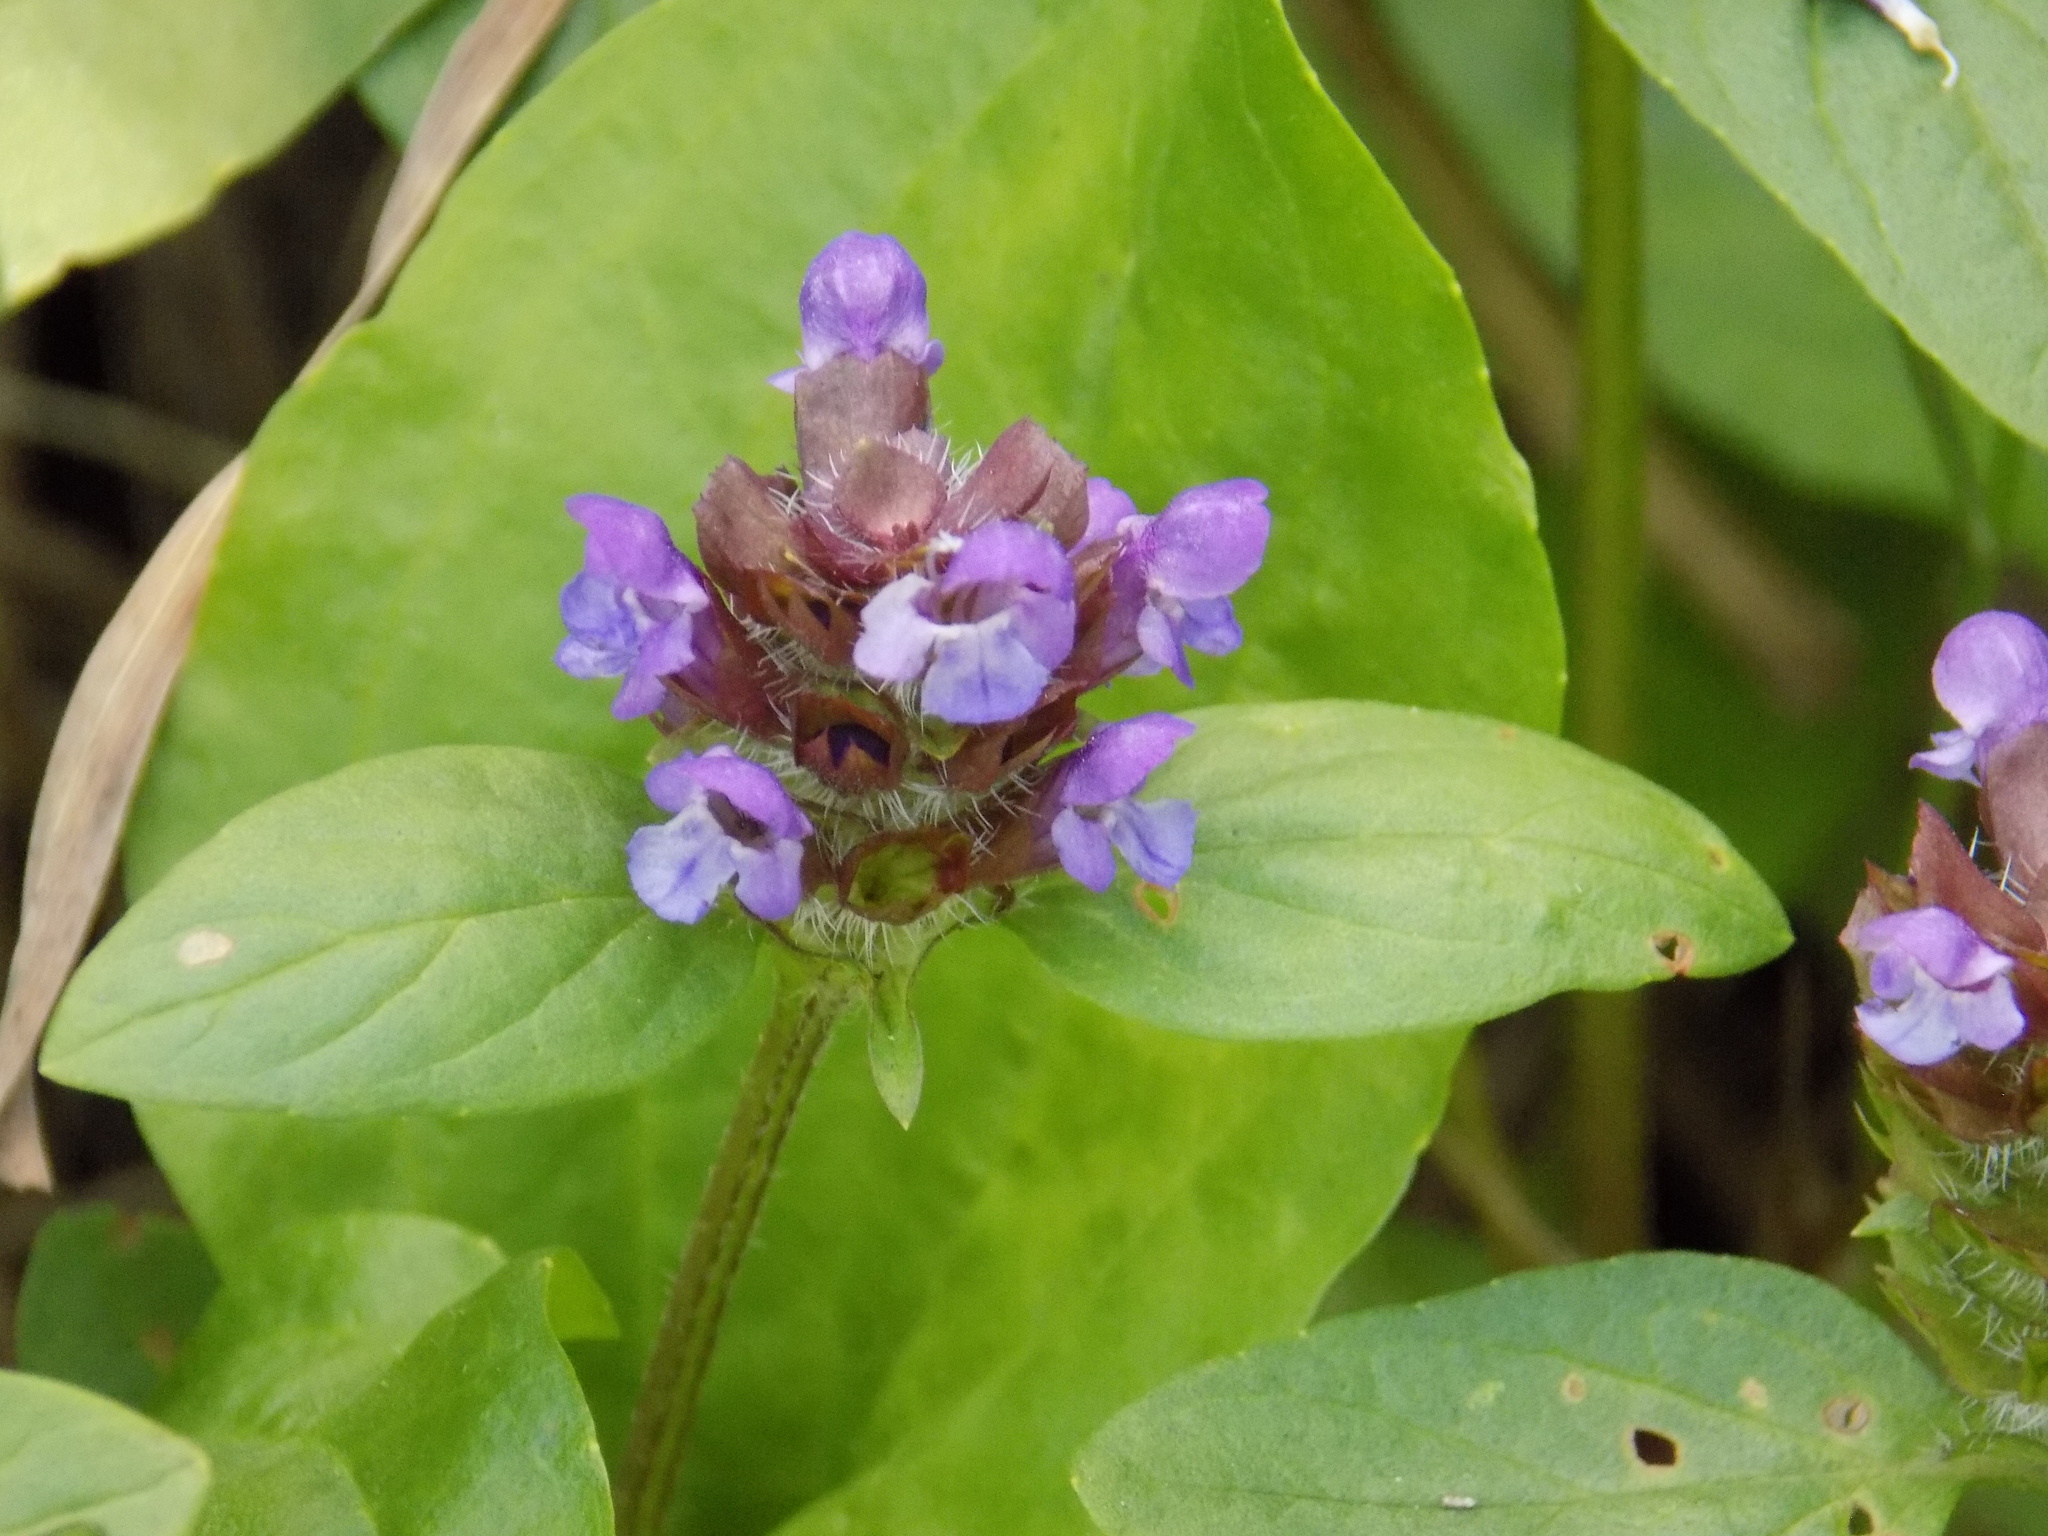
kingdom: Plantae
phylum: Tracheophyta
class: Magnoliopsida
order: Lamiales
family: Lamiaceae
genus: Prunella
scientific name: Prunella vulgaris
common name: Heal-all
